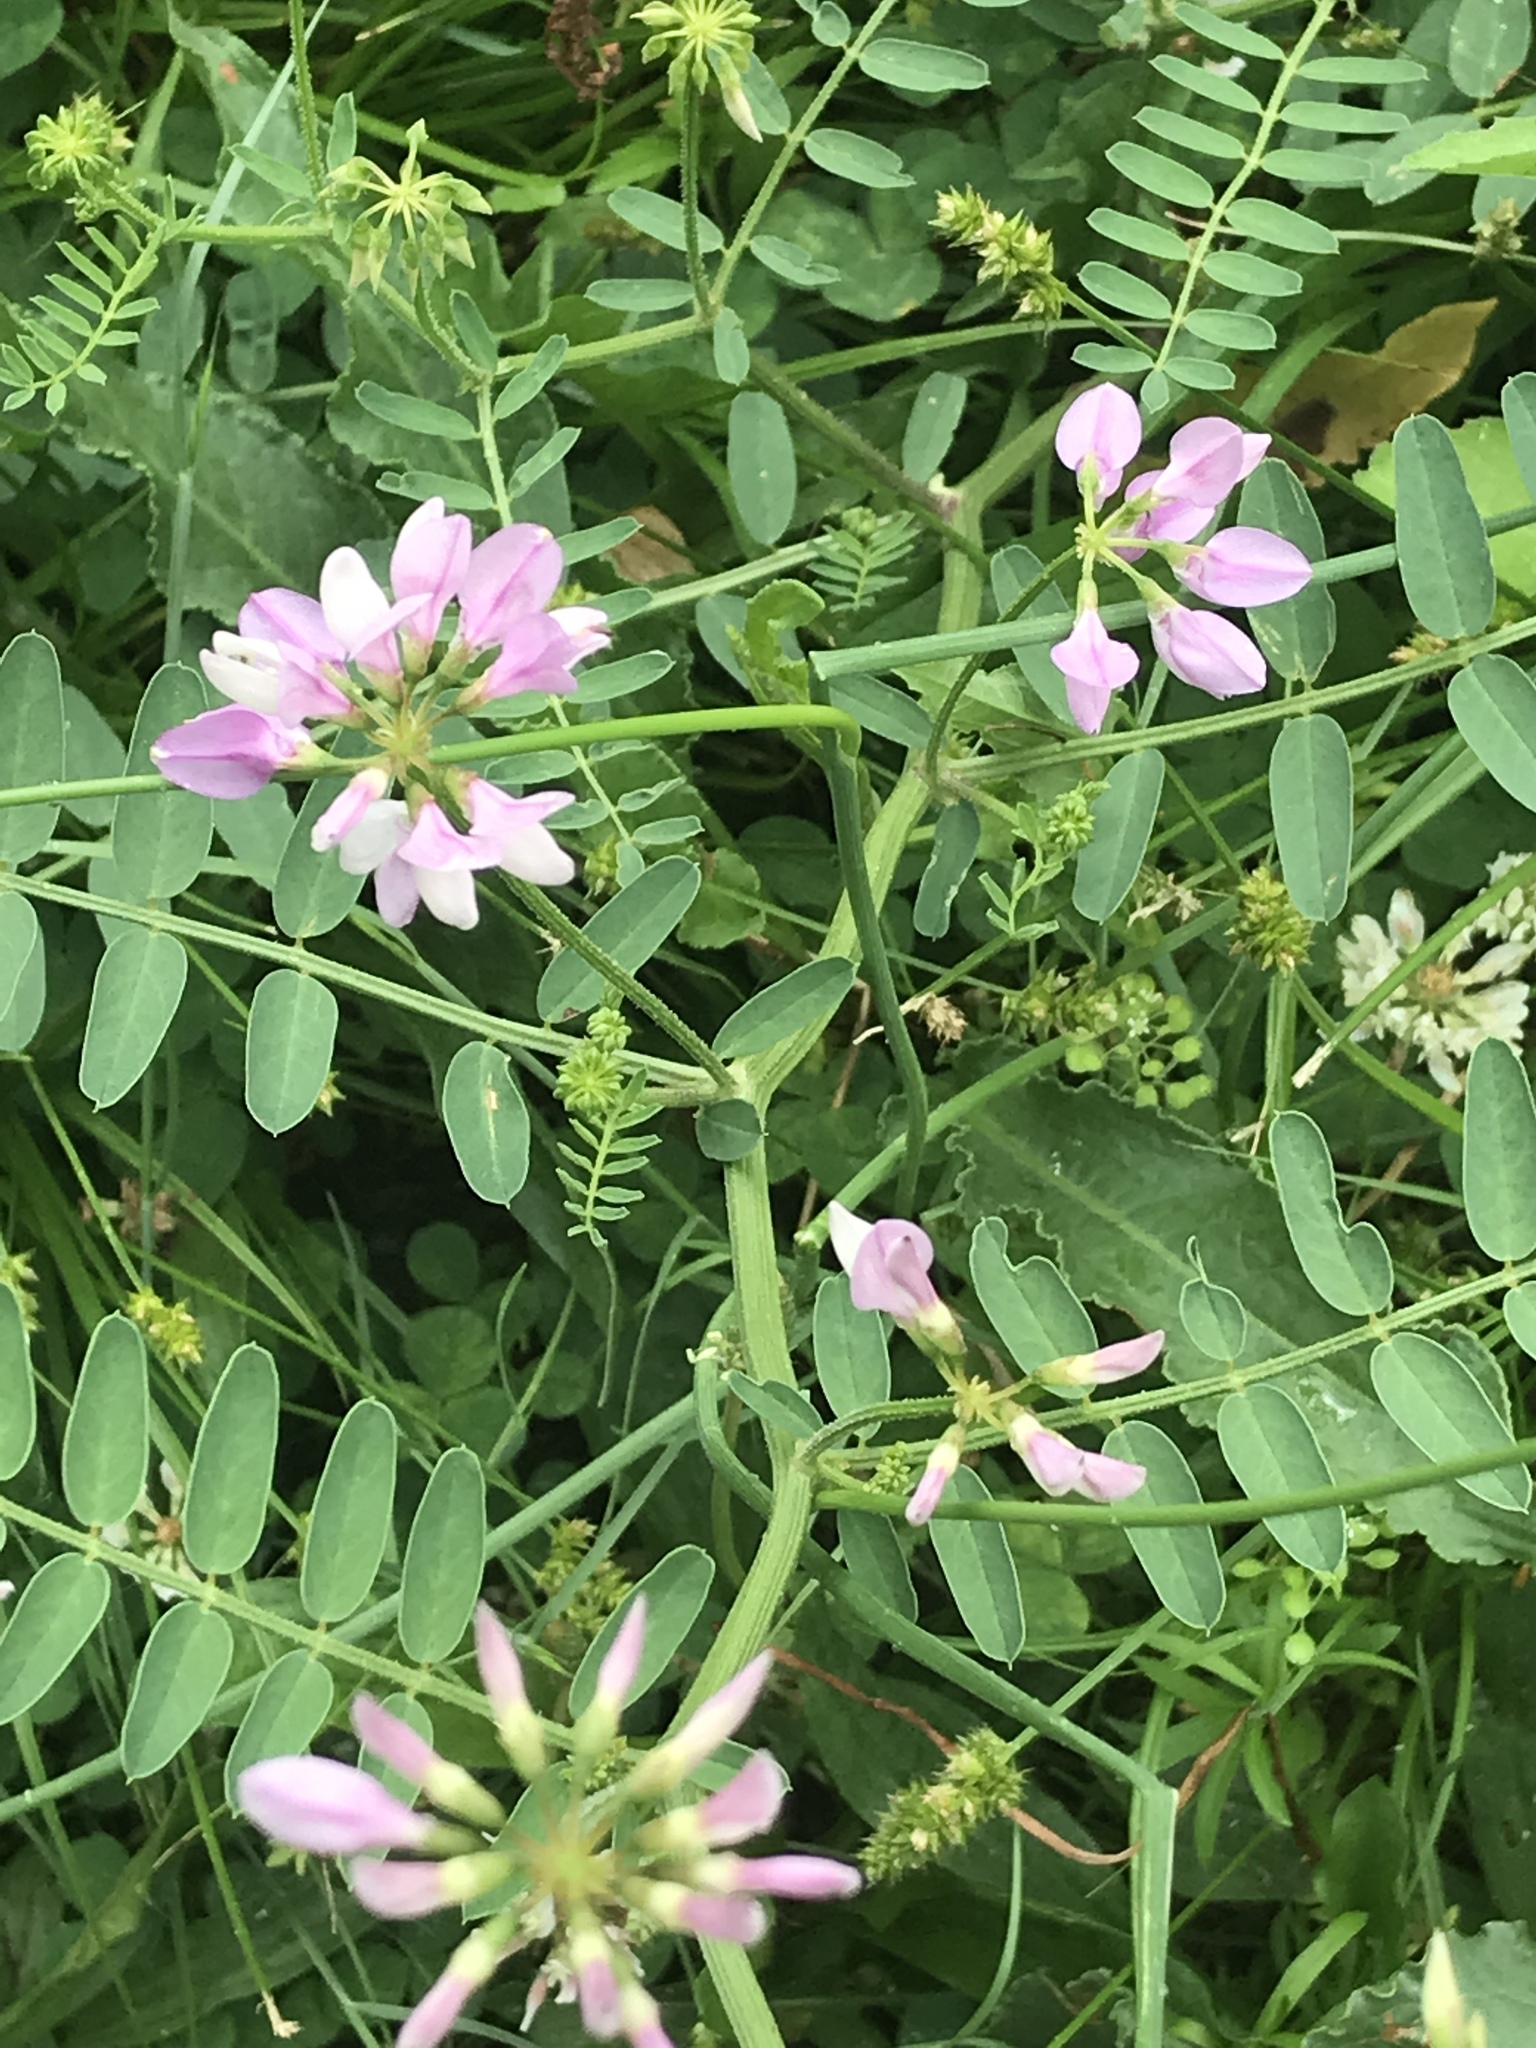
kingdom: Plantae
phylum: Tracheophyta
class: Magnoliopsida
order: Fabales
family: Fabaceae
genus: Coronilla
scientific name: Coronilla varia
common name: Crownvetch
